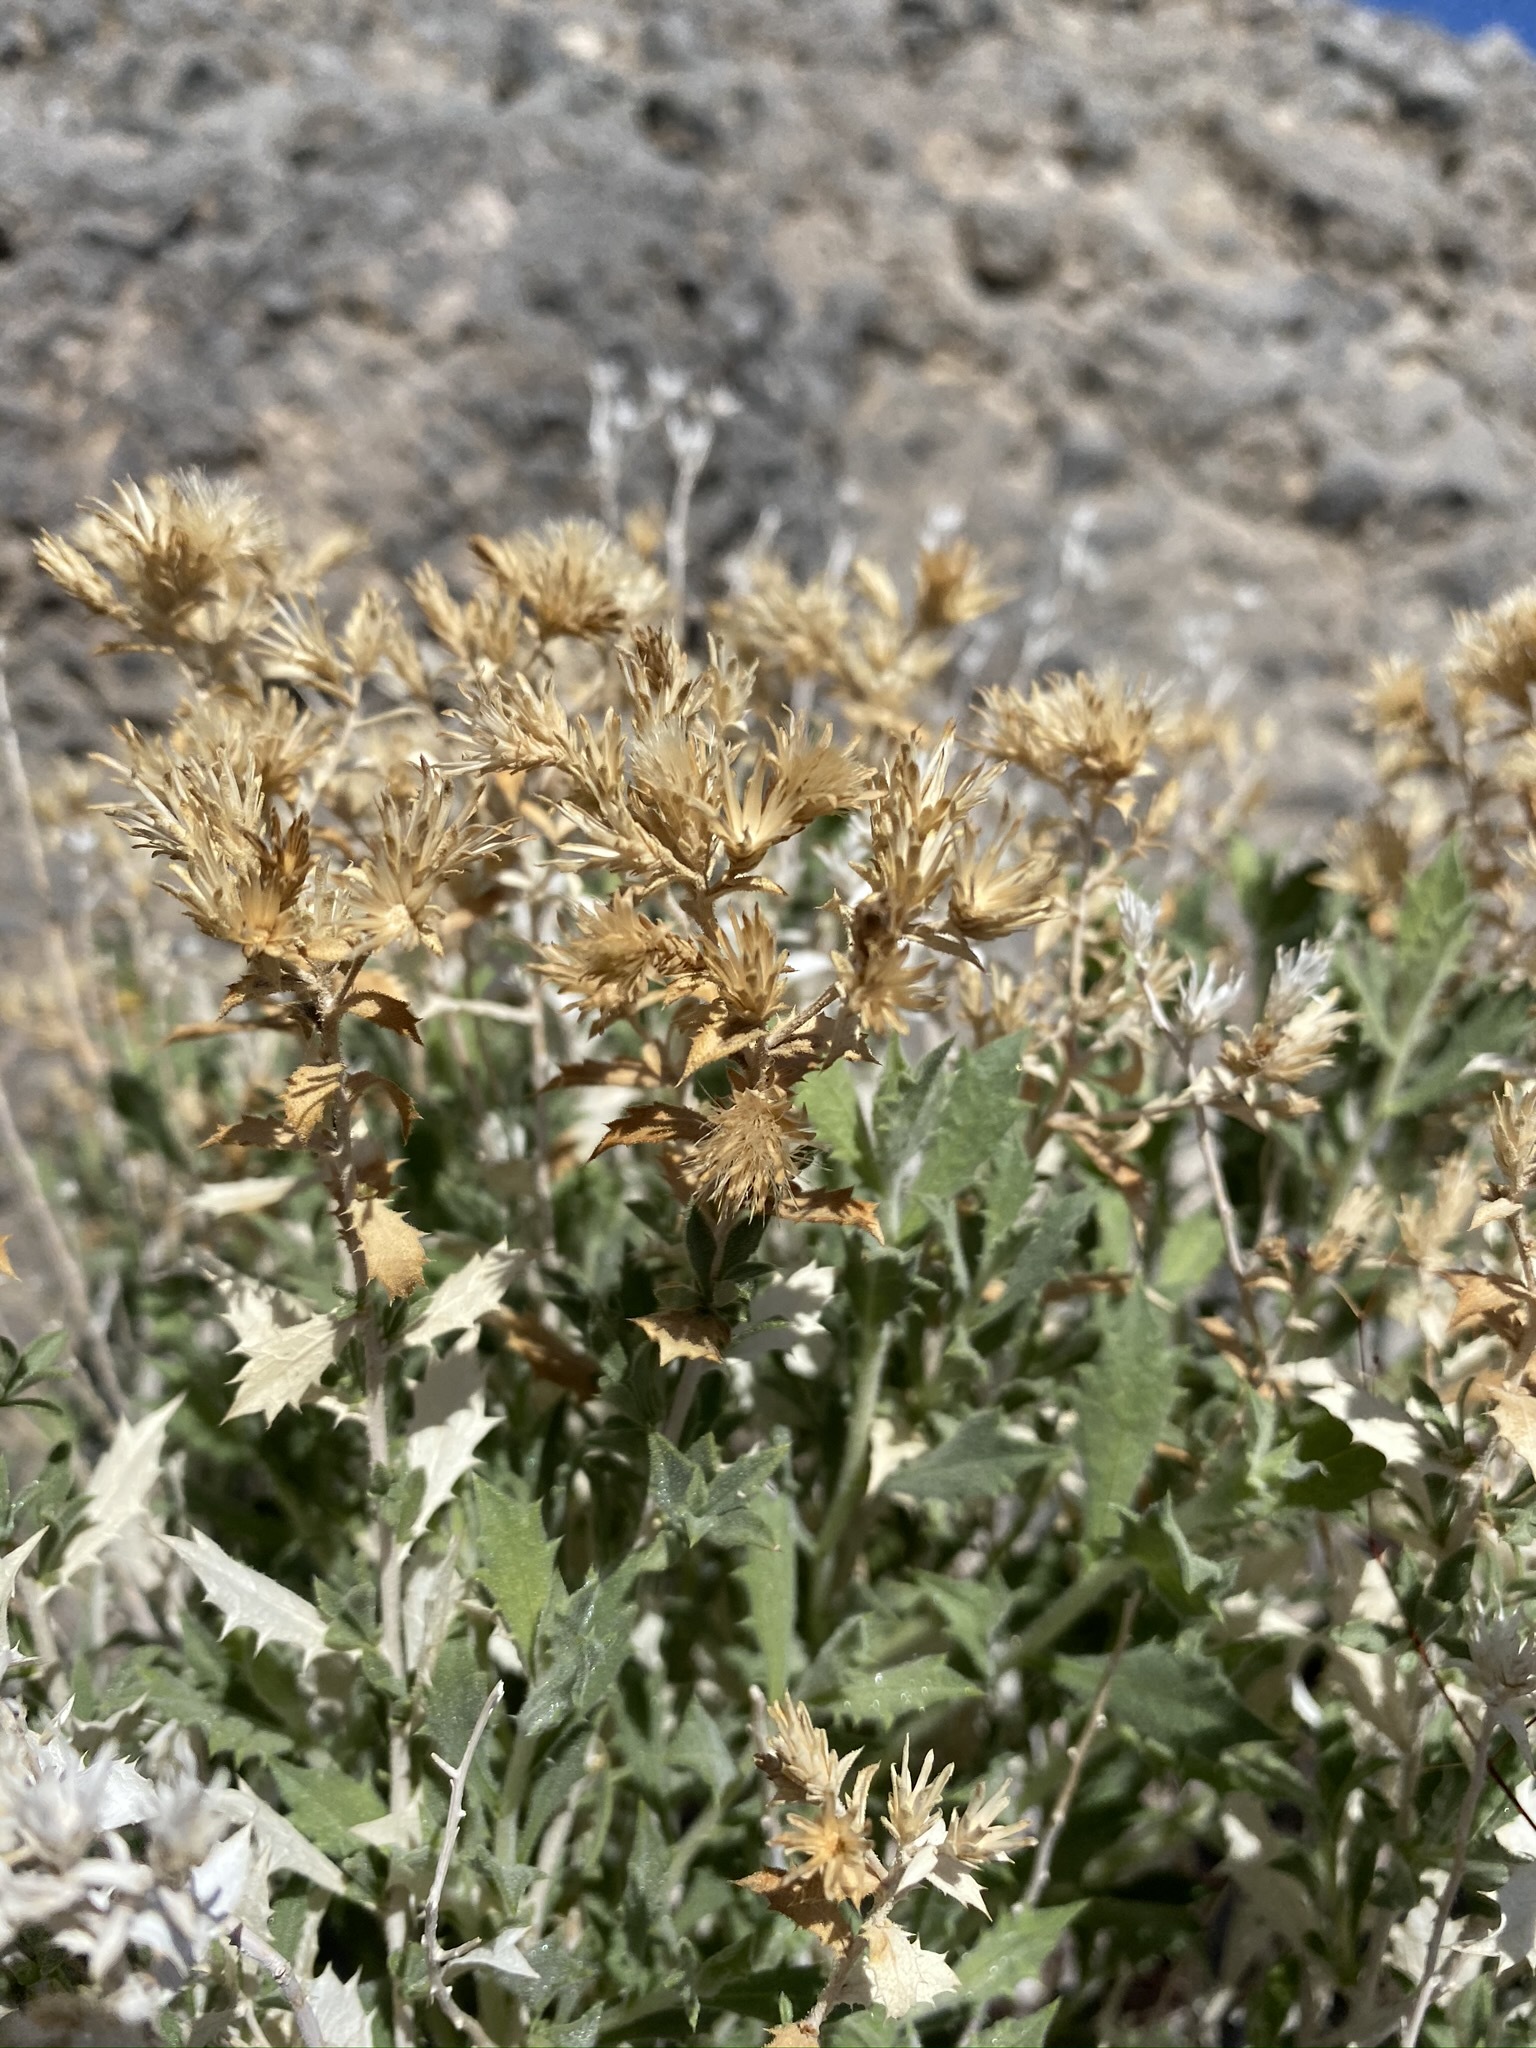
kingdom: Plantae
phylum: Tracheophyta
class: Magnoliopsida
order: Asterales
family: Asteraceae
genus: Adiaphila
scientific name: Adiaphila brickellioides
